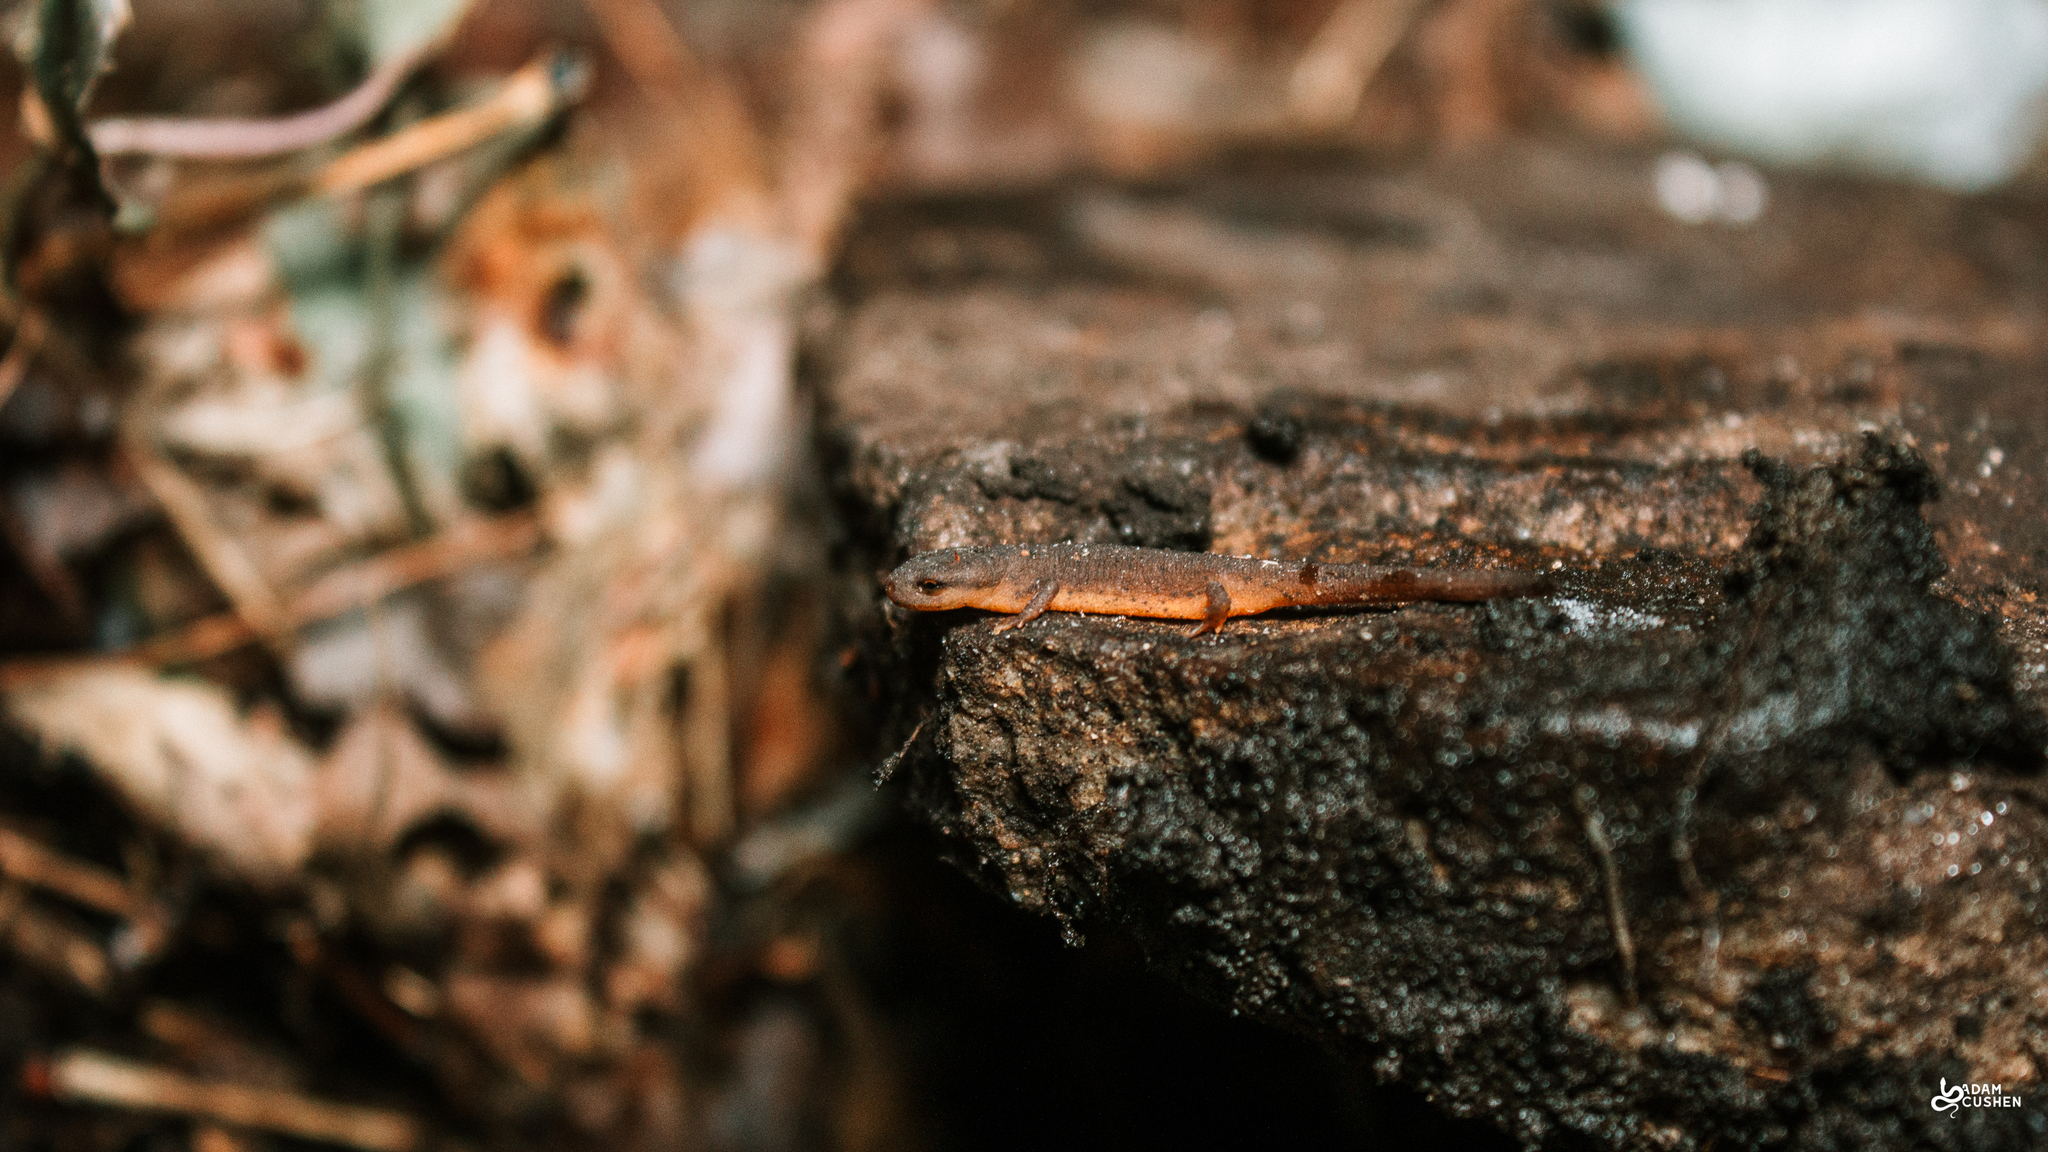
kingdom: Animalia
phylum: Chordata
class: Amphibia
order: Caudata
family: Salamandridae
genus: Notophthalmus
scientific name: Notophthalmus viridescens
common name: Eastern newt
